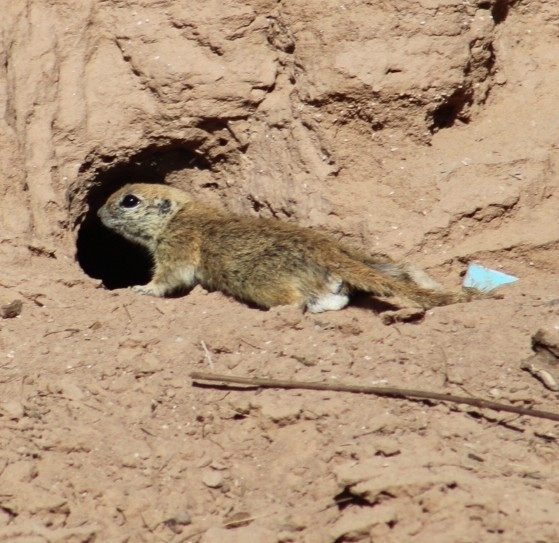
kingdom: Animalia
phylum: Chordata
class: Mammalia
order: Rodentia
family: Sciuridae
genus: Xerospermophilus
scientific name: Xerospermophilus tereticaudus
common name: Round-tailed ground squirrel
